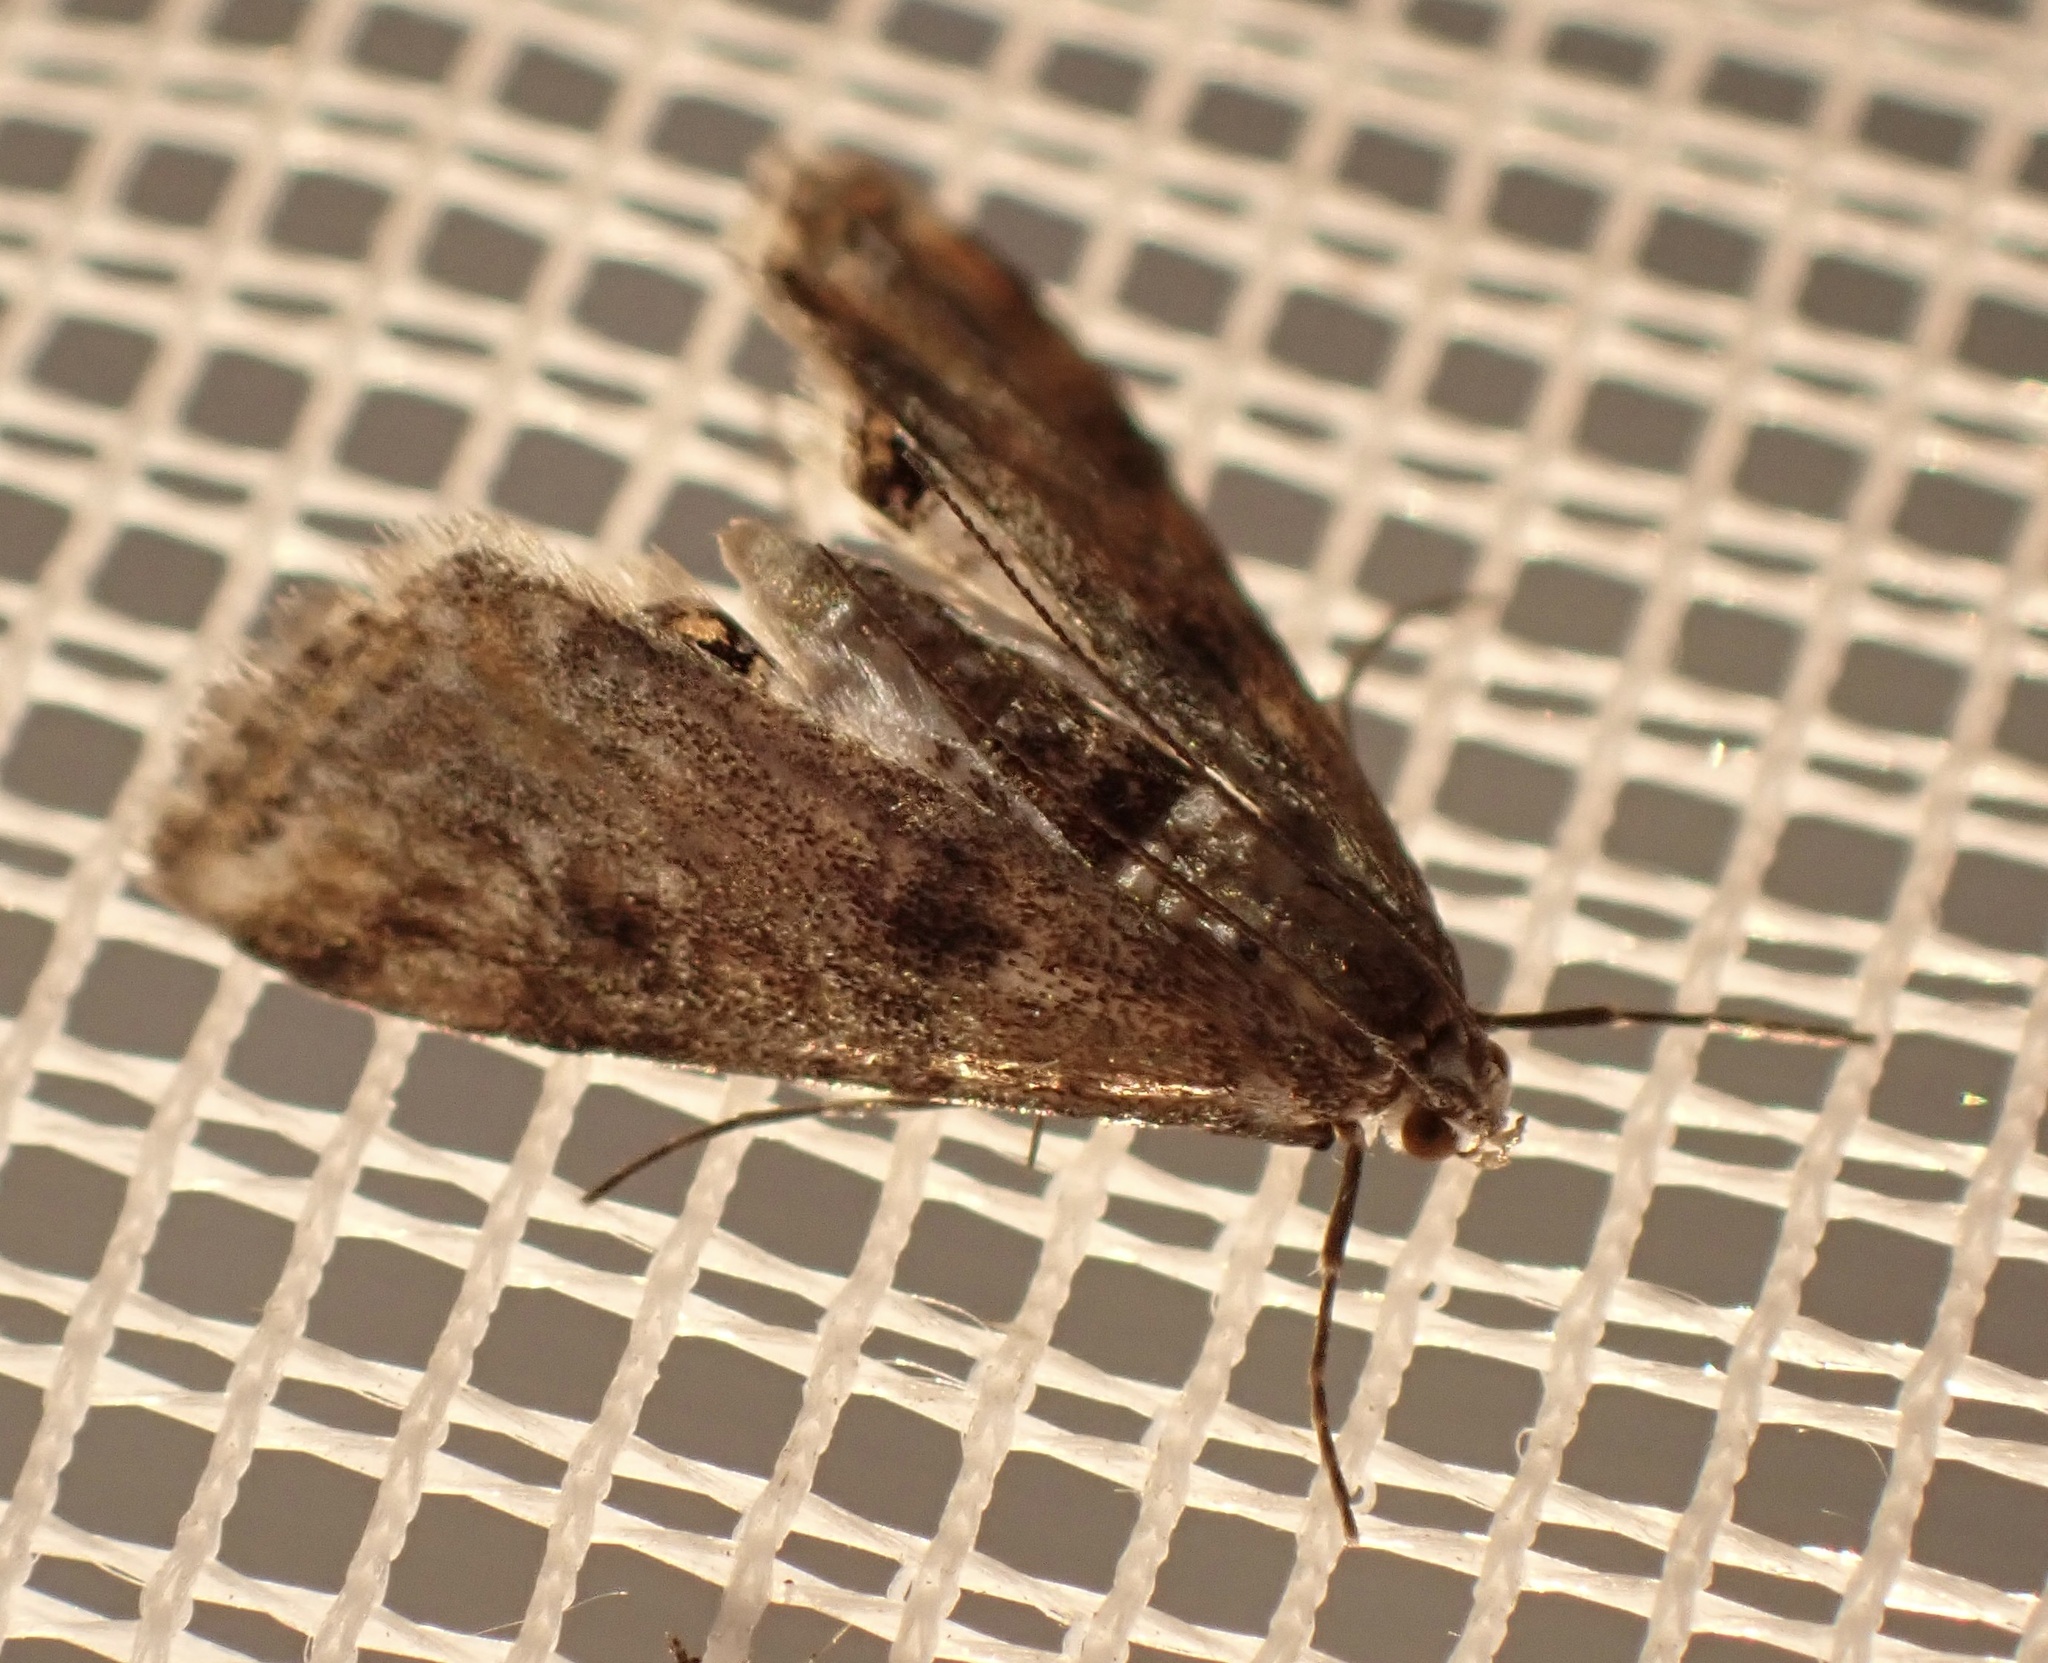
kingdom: Animalia
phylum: Arthropoda
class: Insecta
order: Lepidoptera
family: Crambidae
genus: Cataclysta
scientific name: Cataclysta lemnata
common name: Small china-mark
